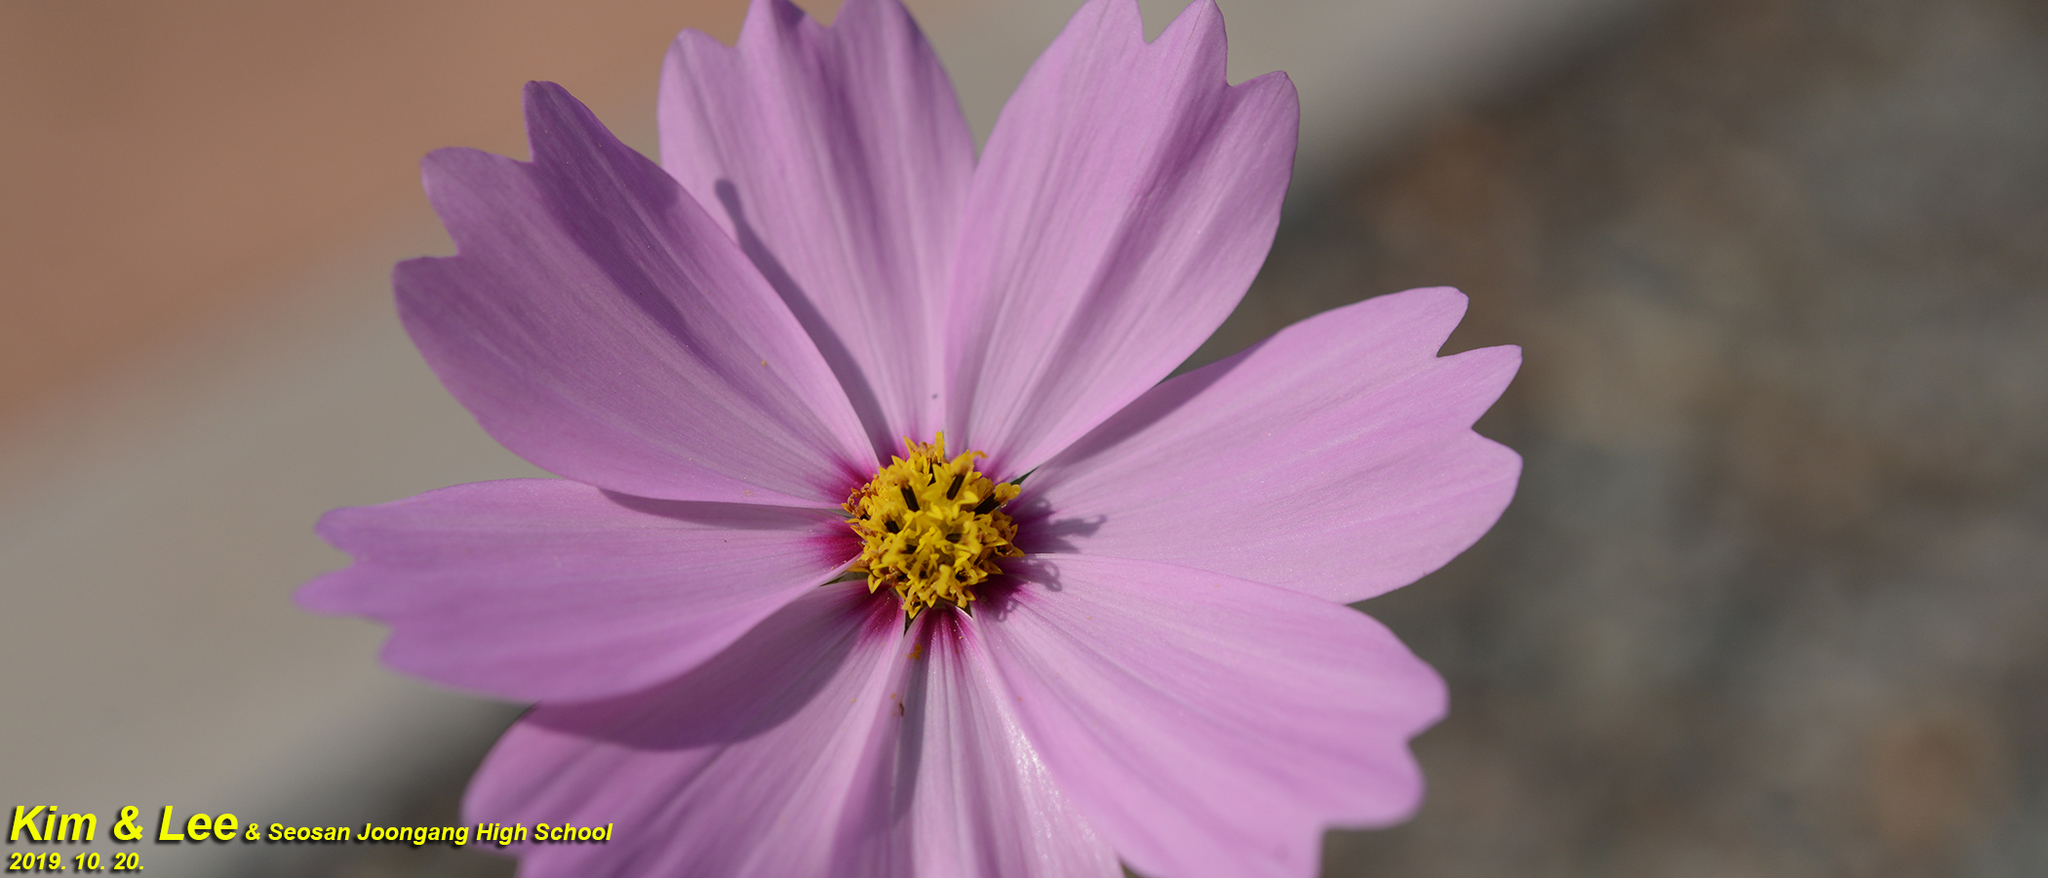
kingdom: Plantae
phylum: Tracheophyta
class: Magnoliopsida
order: Asterales
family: Asteraceae
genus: Cosmos
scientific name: Cosmos bipinnatus
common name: Garden cosmos
